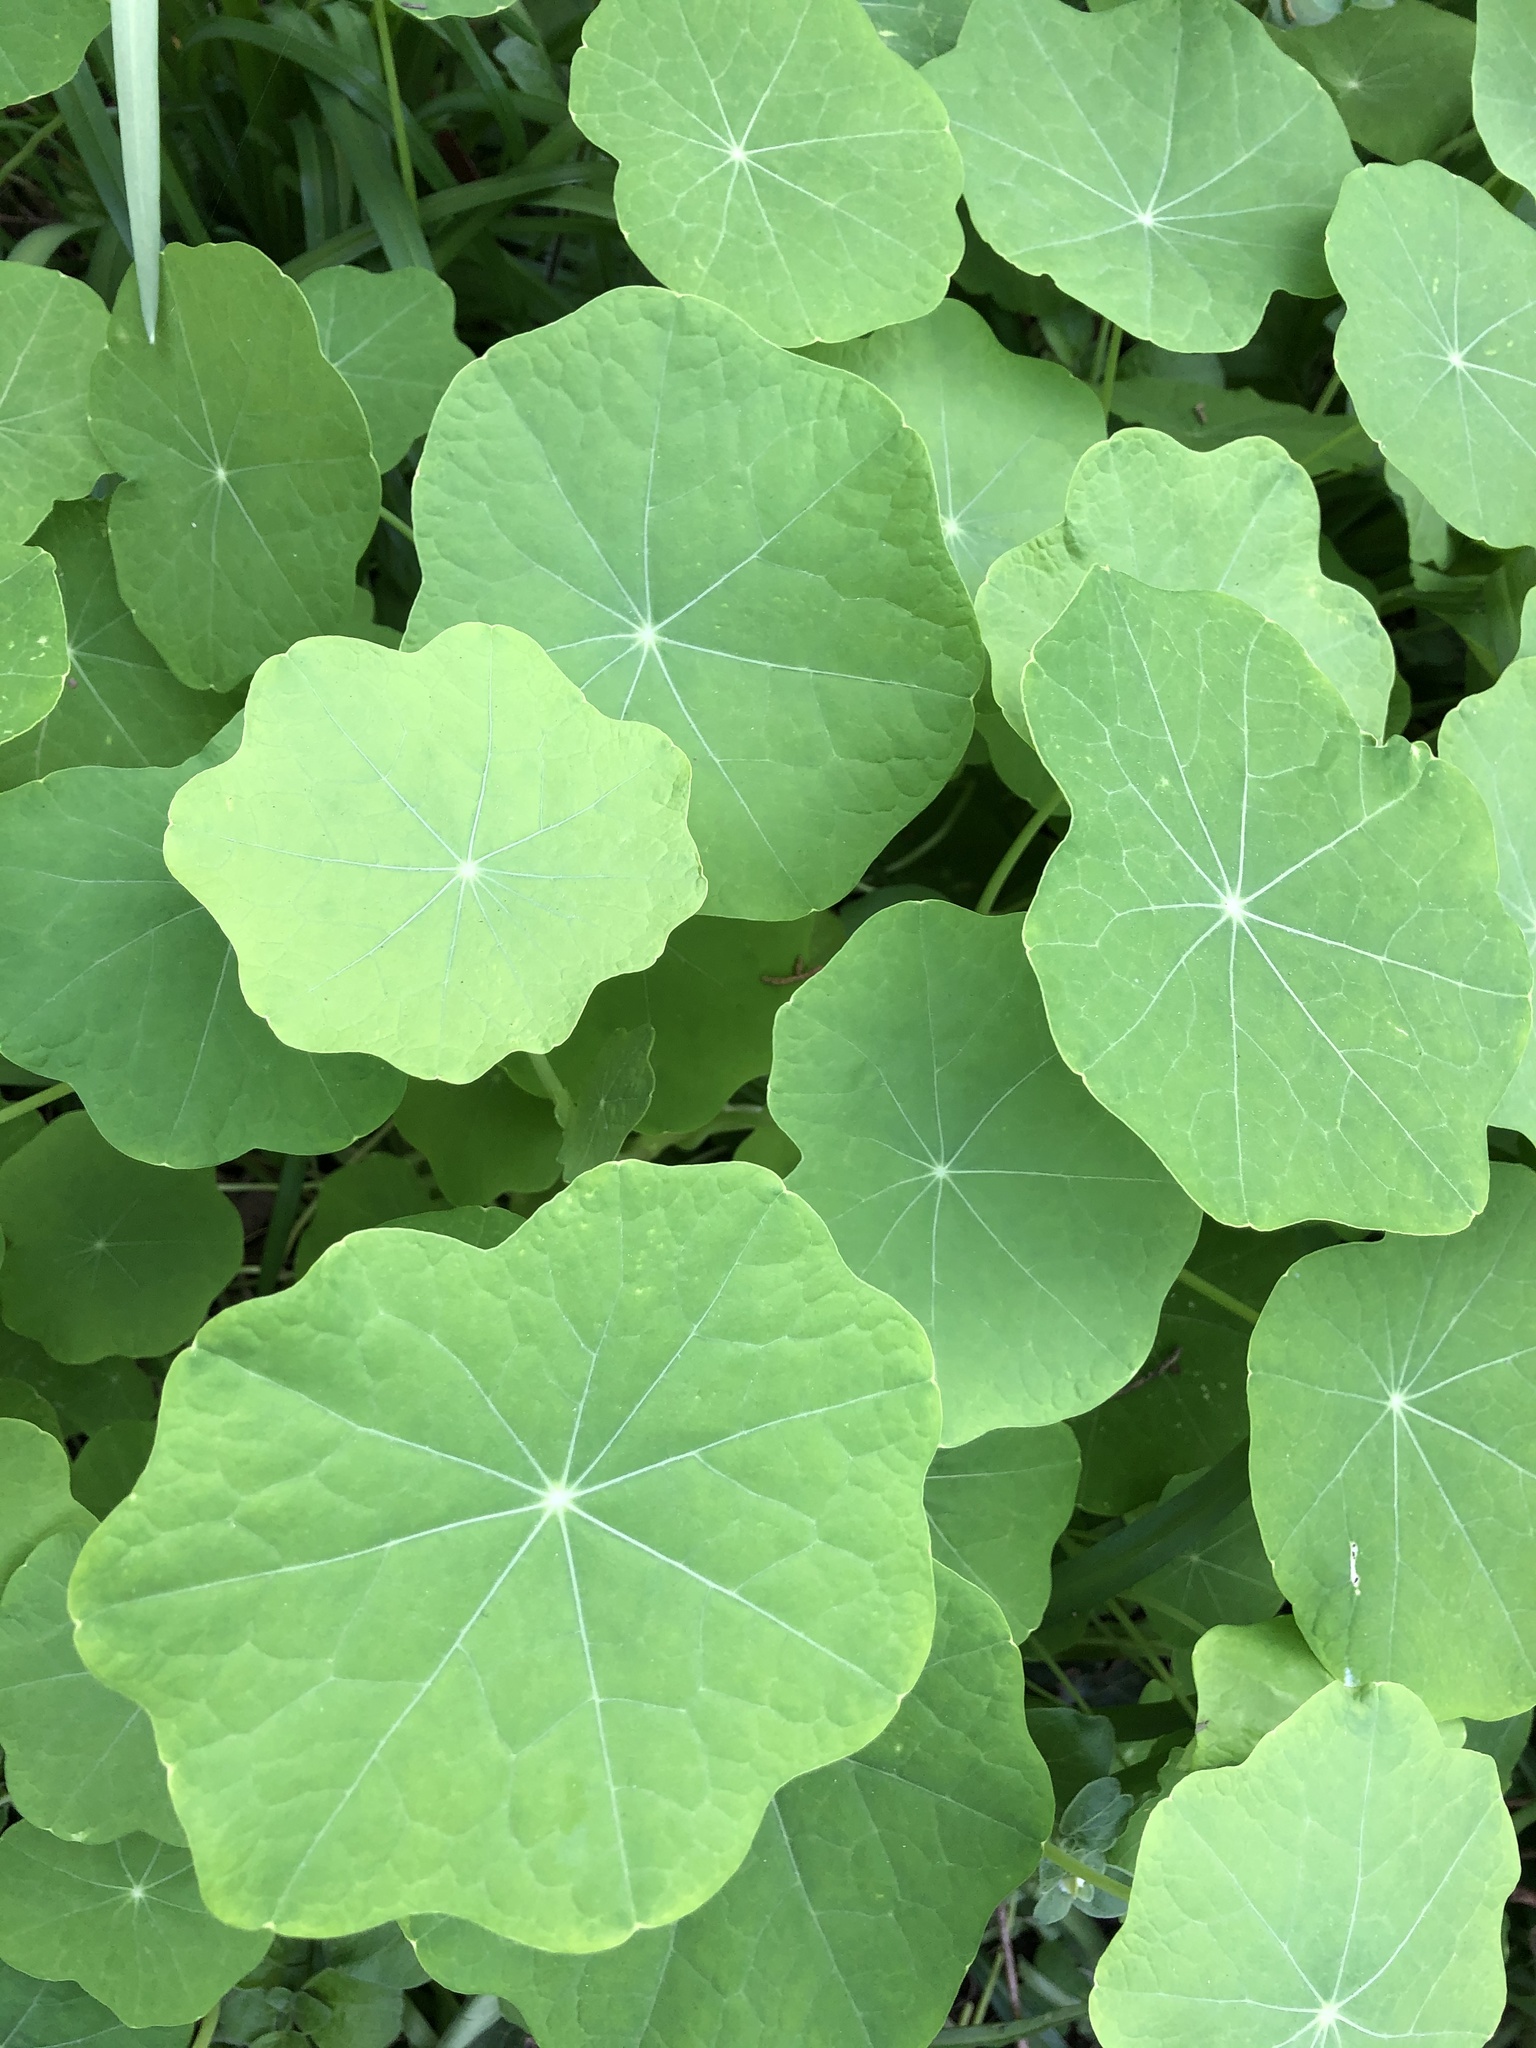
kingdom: Plantae
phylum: Tracheophyta
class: Magnoliopsida
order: Brassicales
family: Tropaeolaceae
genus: Tropaeolum
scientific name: Tropaeolum majus
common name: Nasturtium
